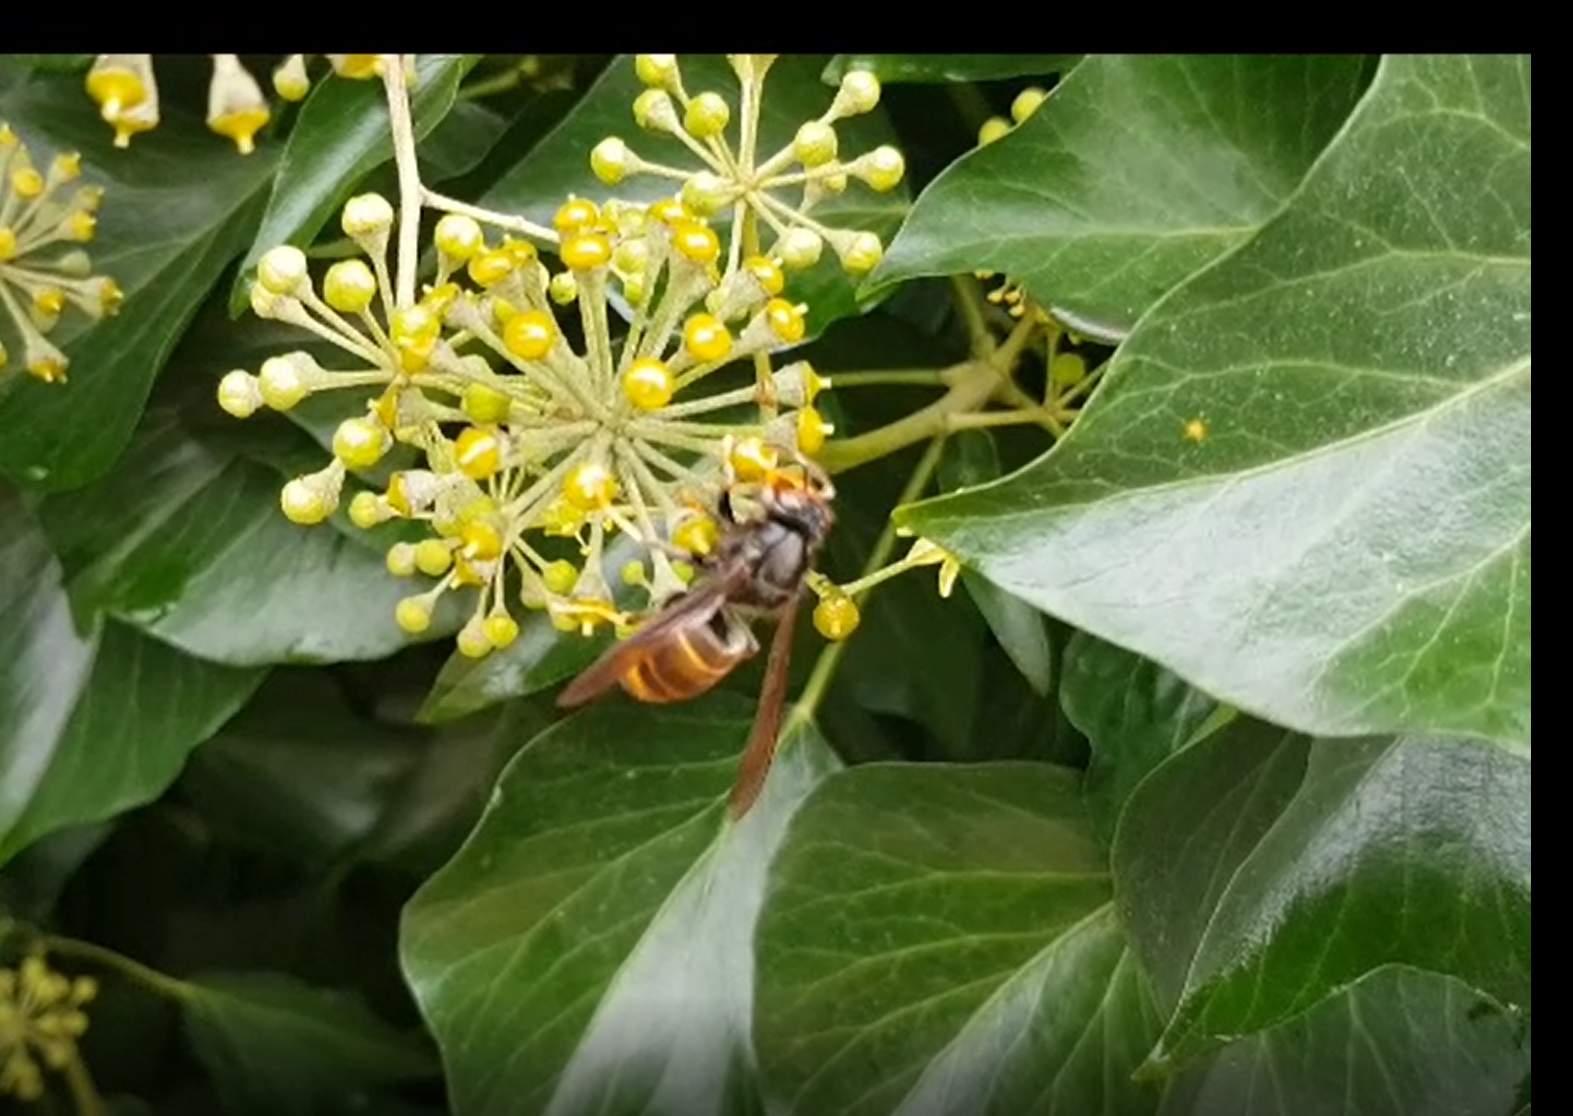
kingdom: Animalia
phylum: Arthropoda
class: Insecta
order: Hymenoptera
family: Vespidae
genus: Vespa
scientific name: Vespa velutina
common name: Asian hornet
